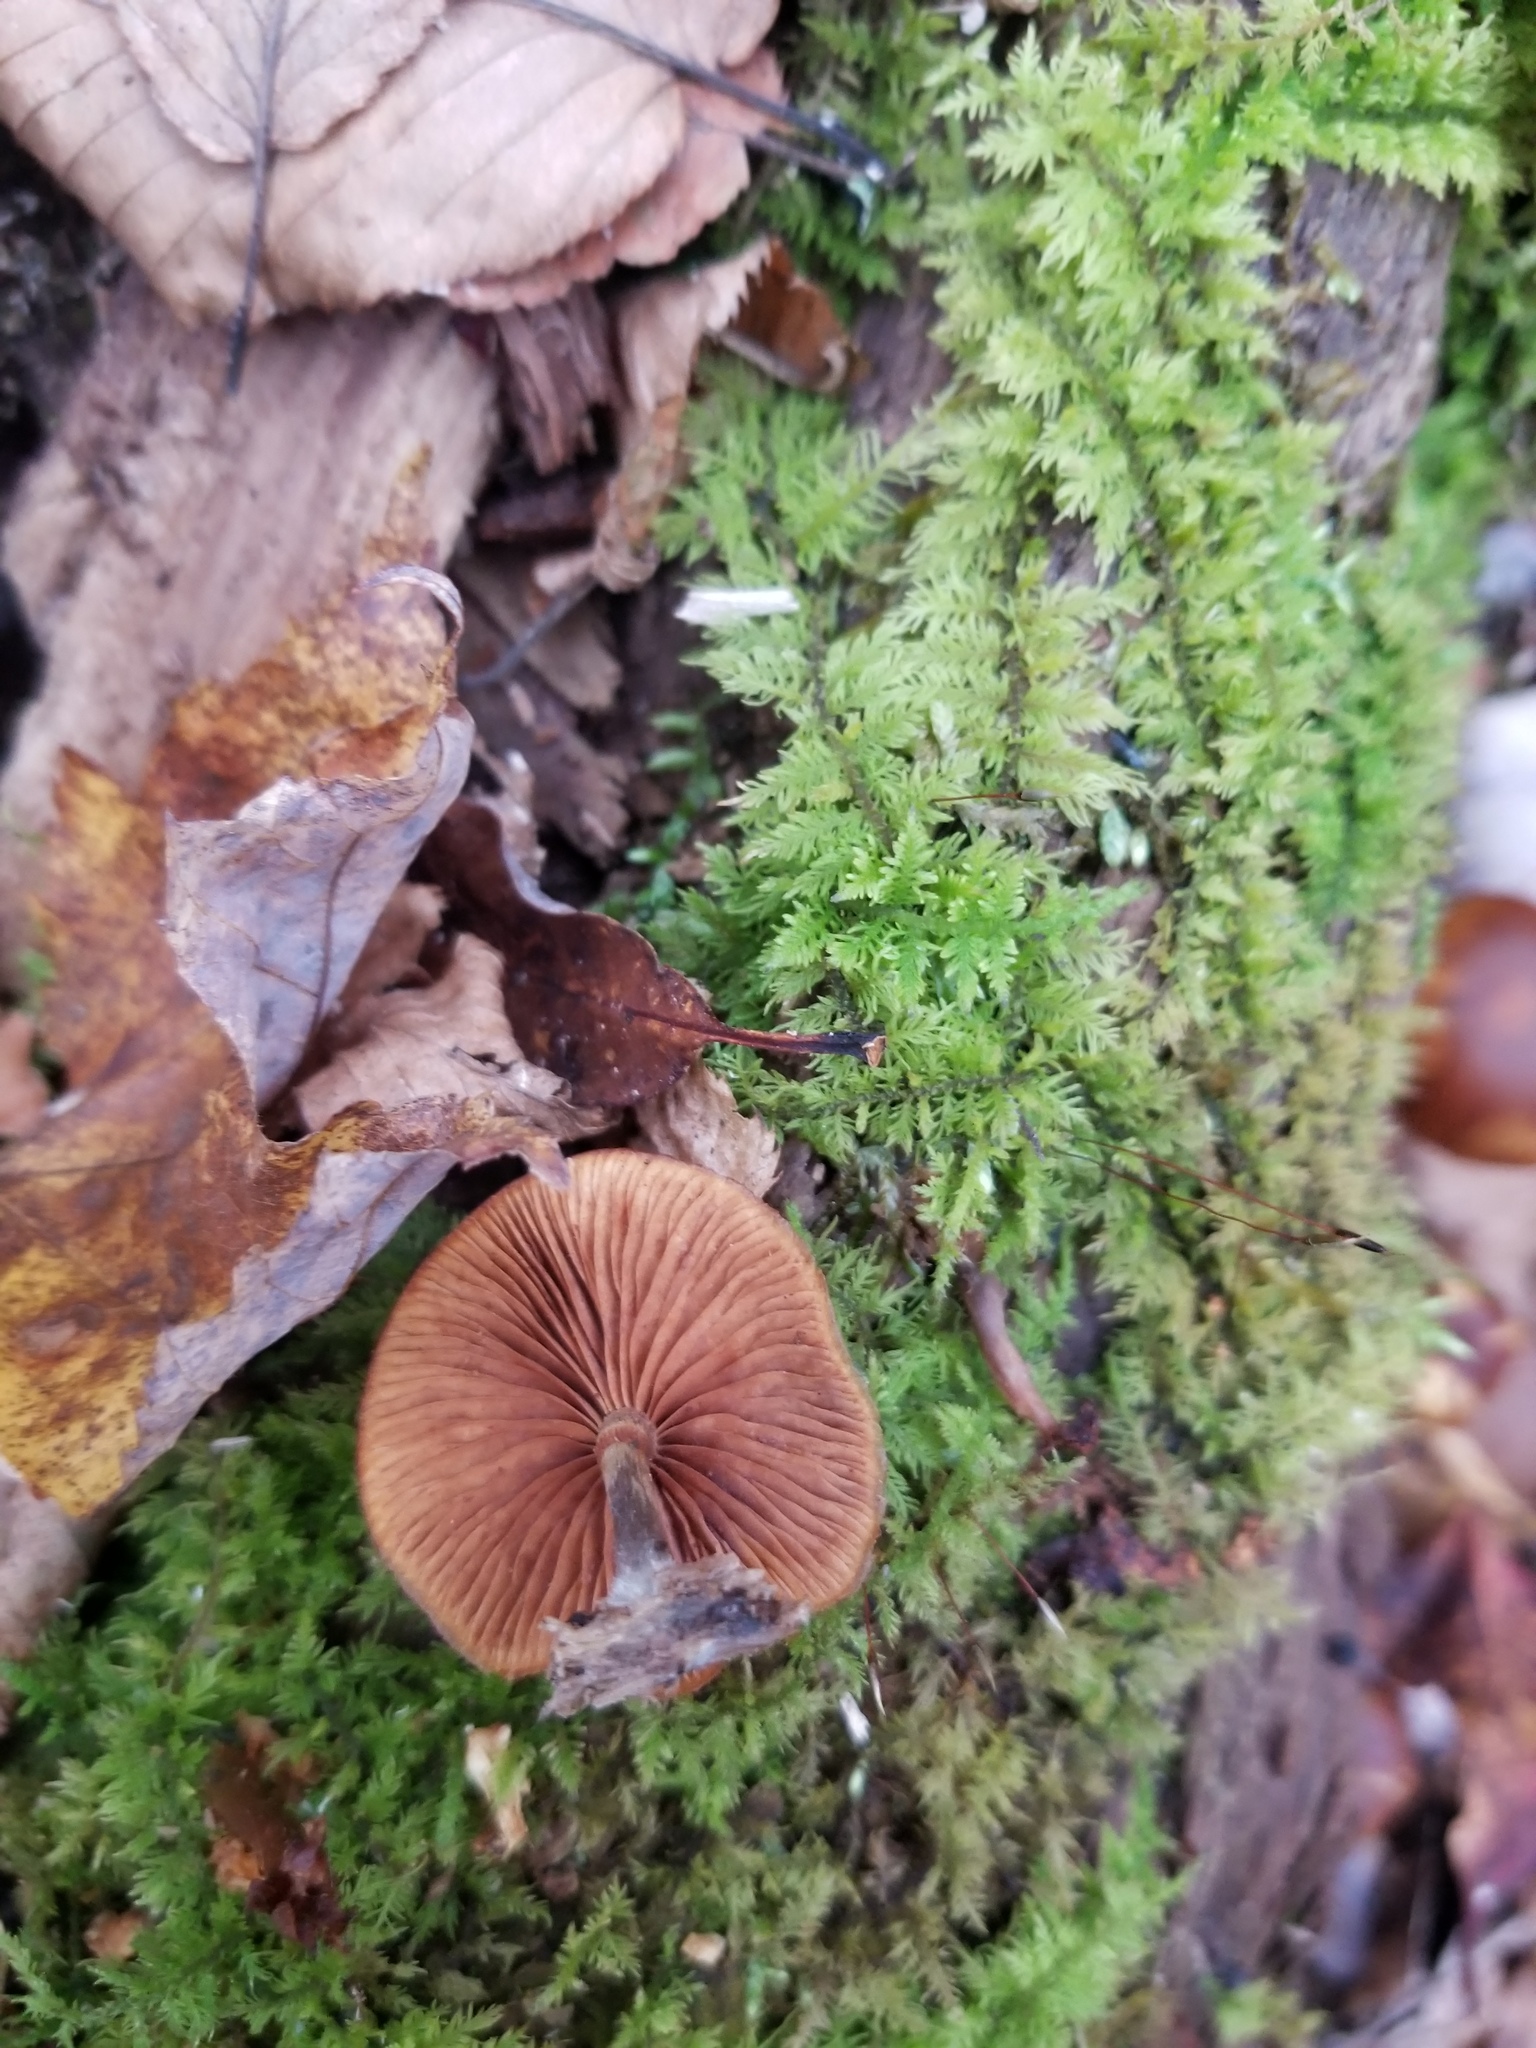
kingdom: Fungi
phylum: Basidiomycota
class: Agaricomycetes
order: Agaricales
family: Hymenogastraceae
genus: Galerina
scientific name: Galerina marginata
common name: Funeral bell
